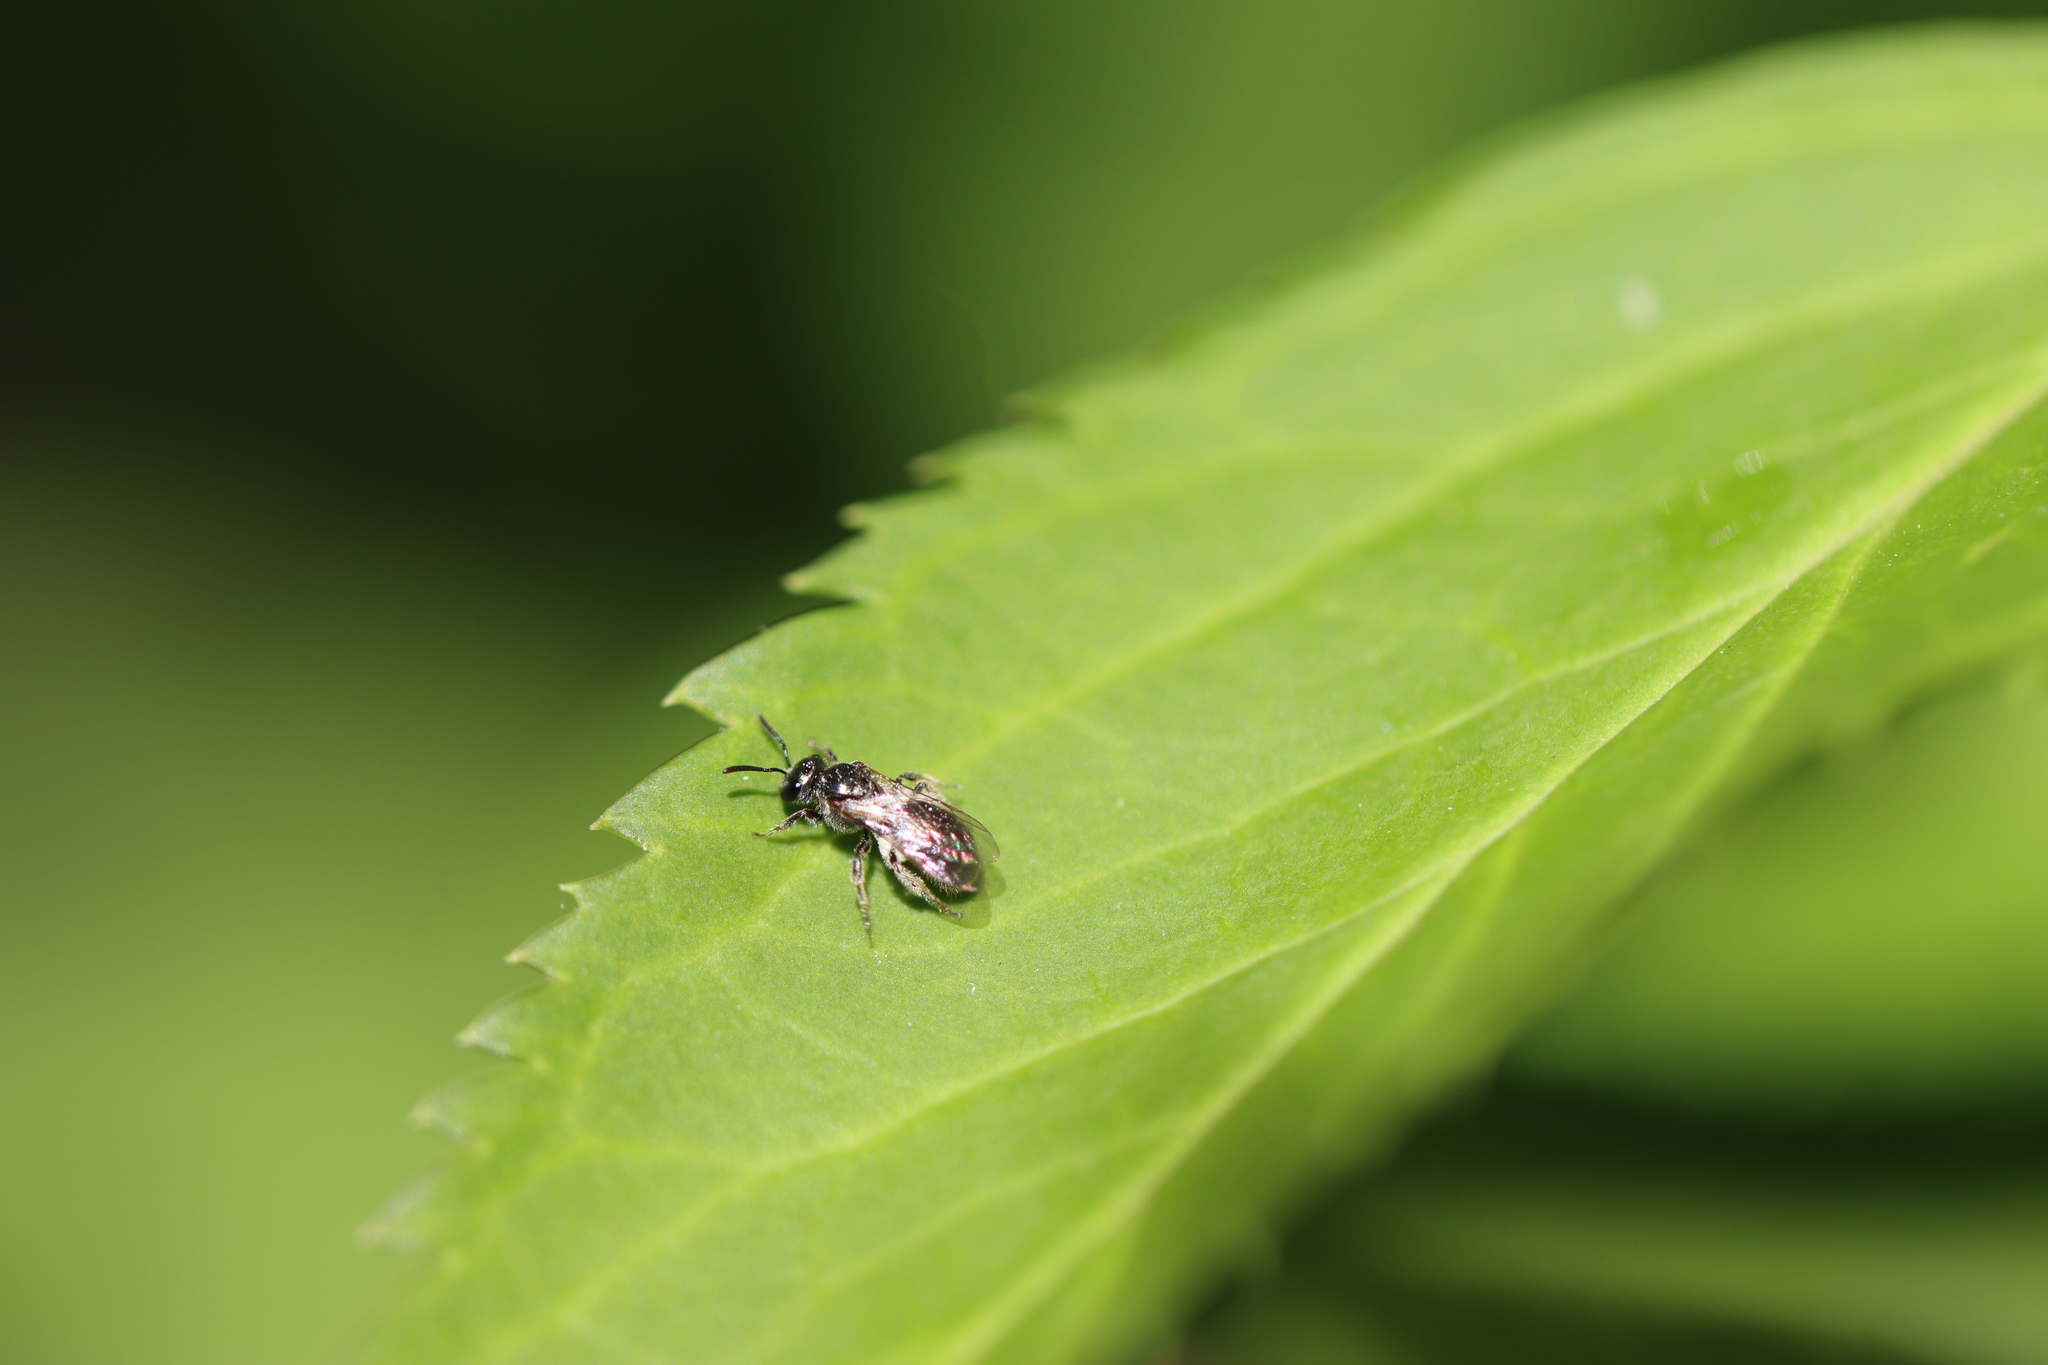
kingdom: Animalia
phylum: Arthropoda
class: Insecta
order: Hymenoptera
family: Halictidae
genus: Dialictus
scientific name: Dialictus
